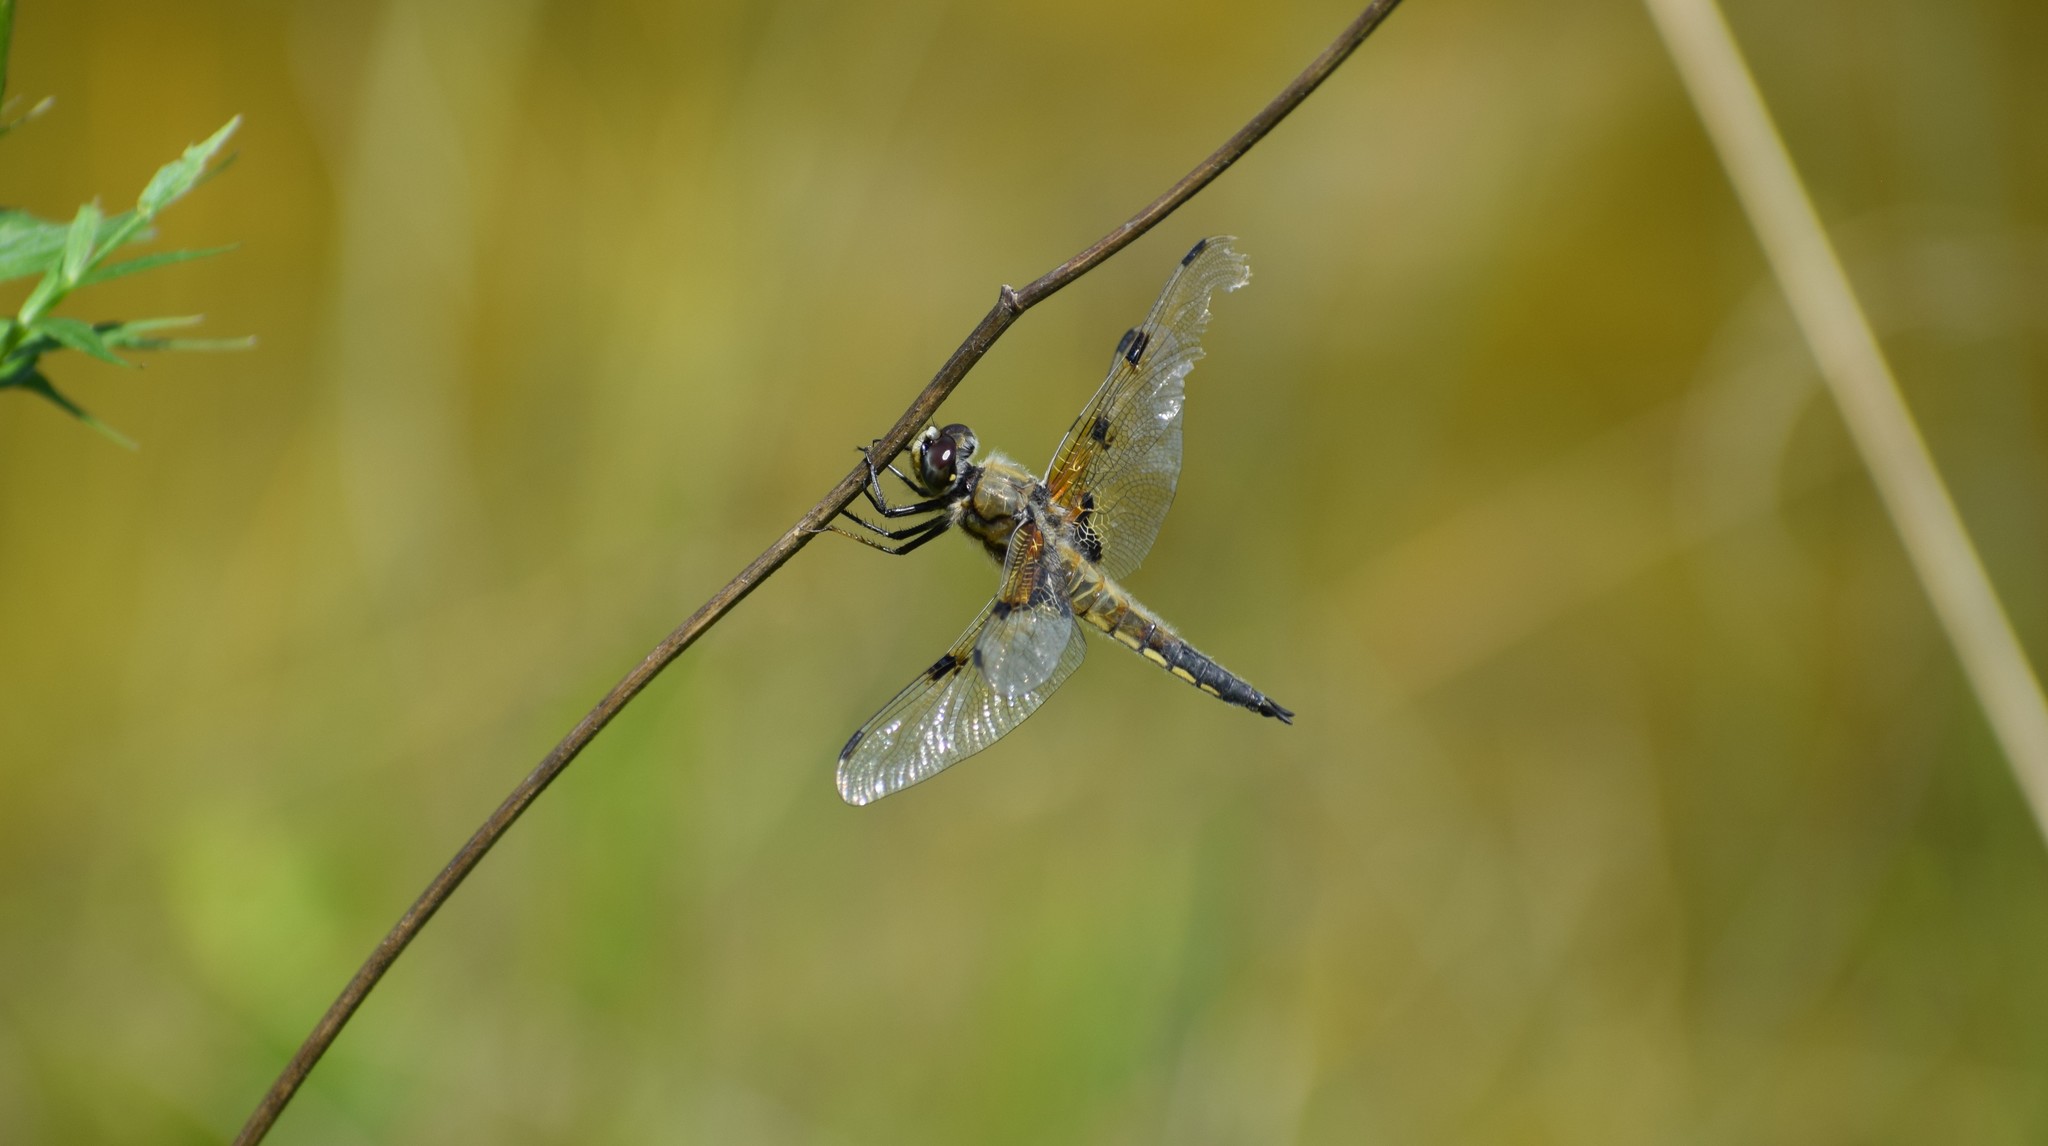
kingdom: Animalia
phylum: Arthropoda
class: Insecta
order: Odonata
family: Libellulidae
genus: Libellula
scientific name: Libellula quadrimaculata
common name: Four-spotted chaser
